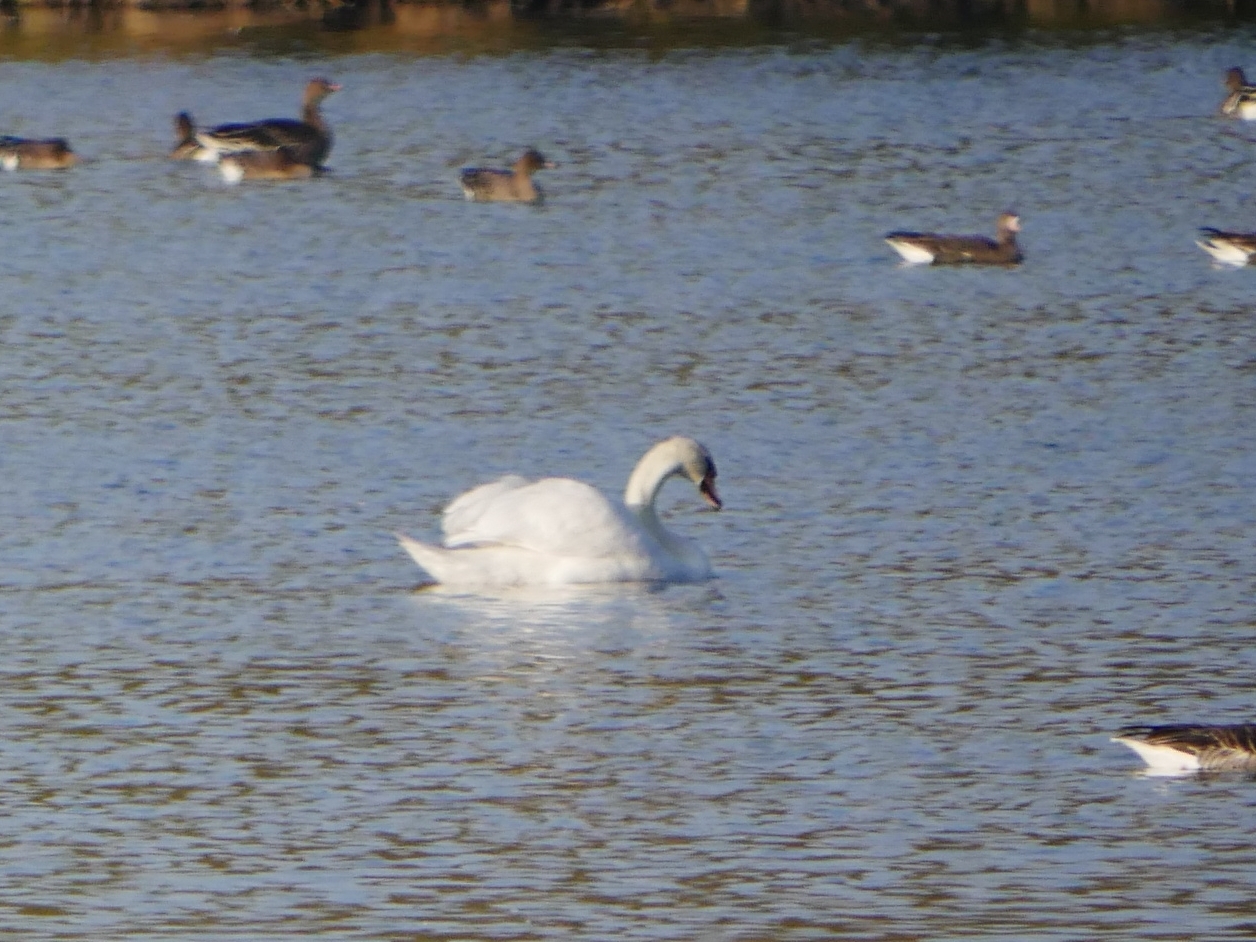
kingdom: Animalia
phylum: Chordata
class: Aves
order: Anseriformes
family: Anatidae
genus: Cygnus
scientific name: Cygnus olor
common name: Mute swan
